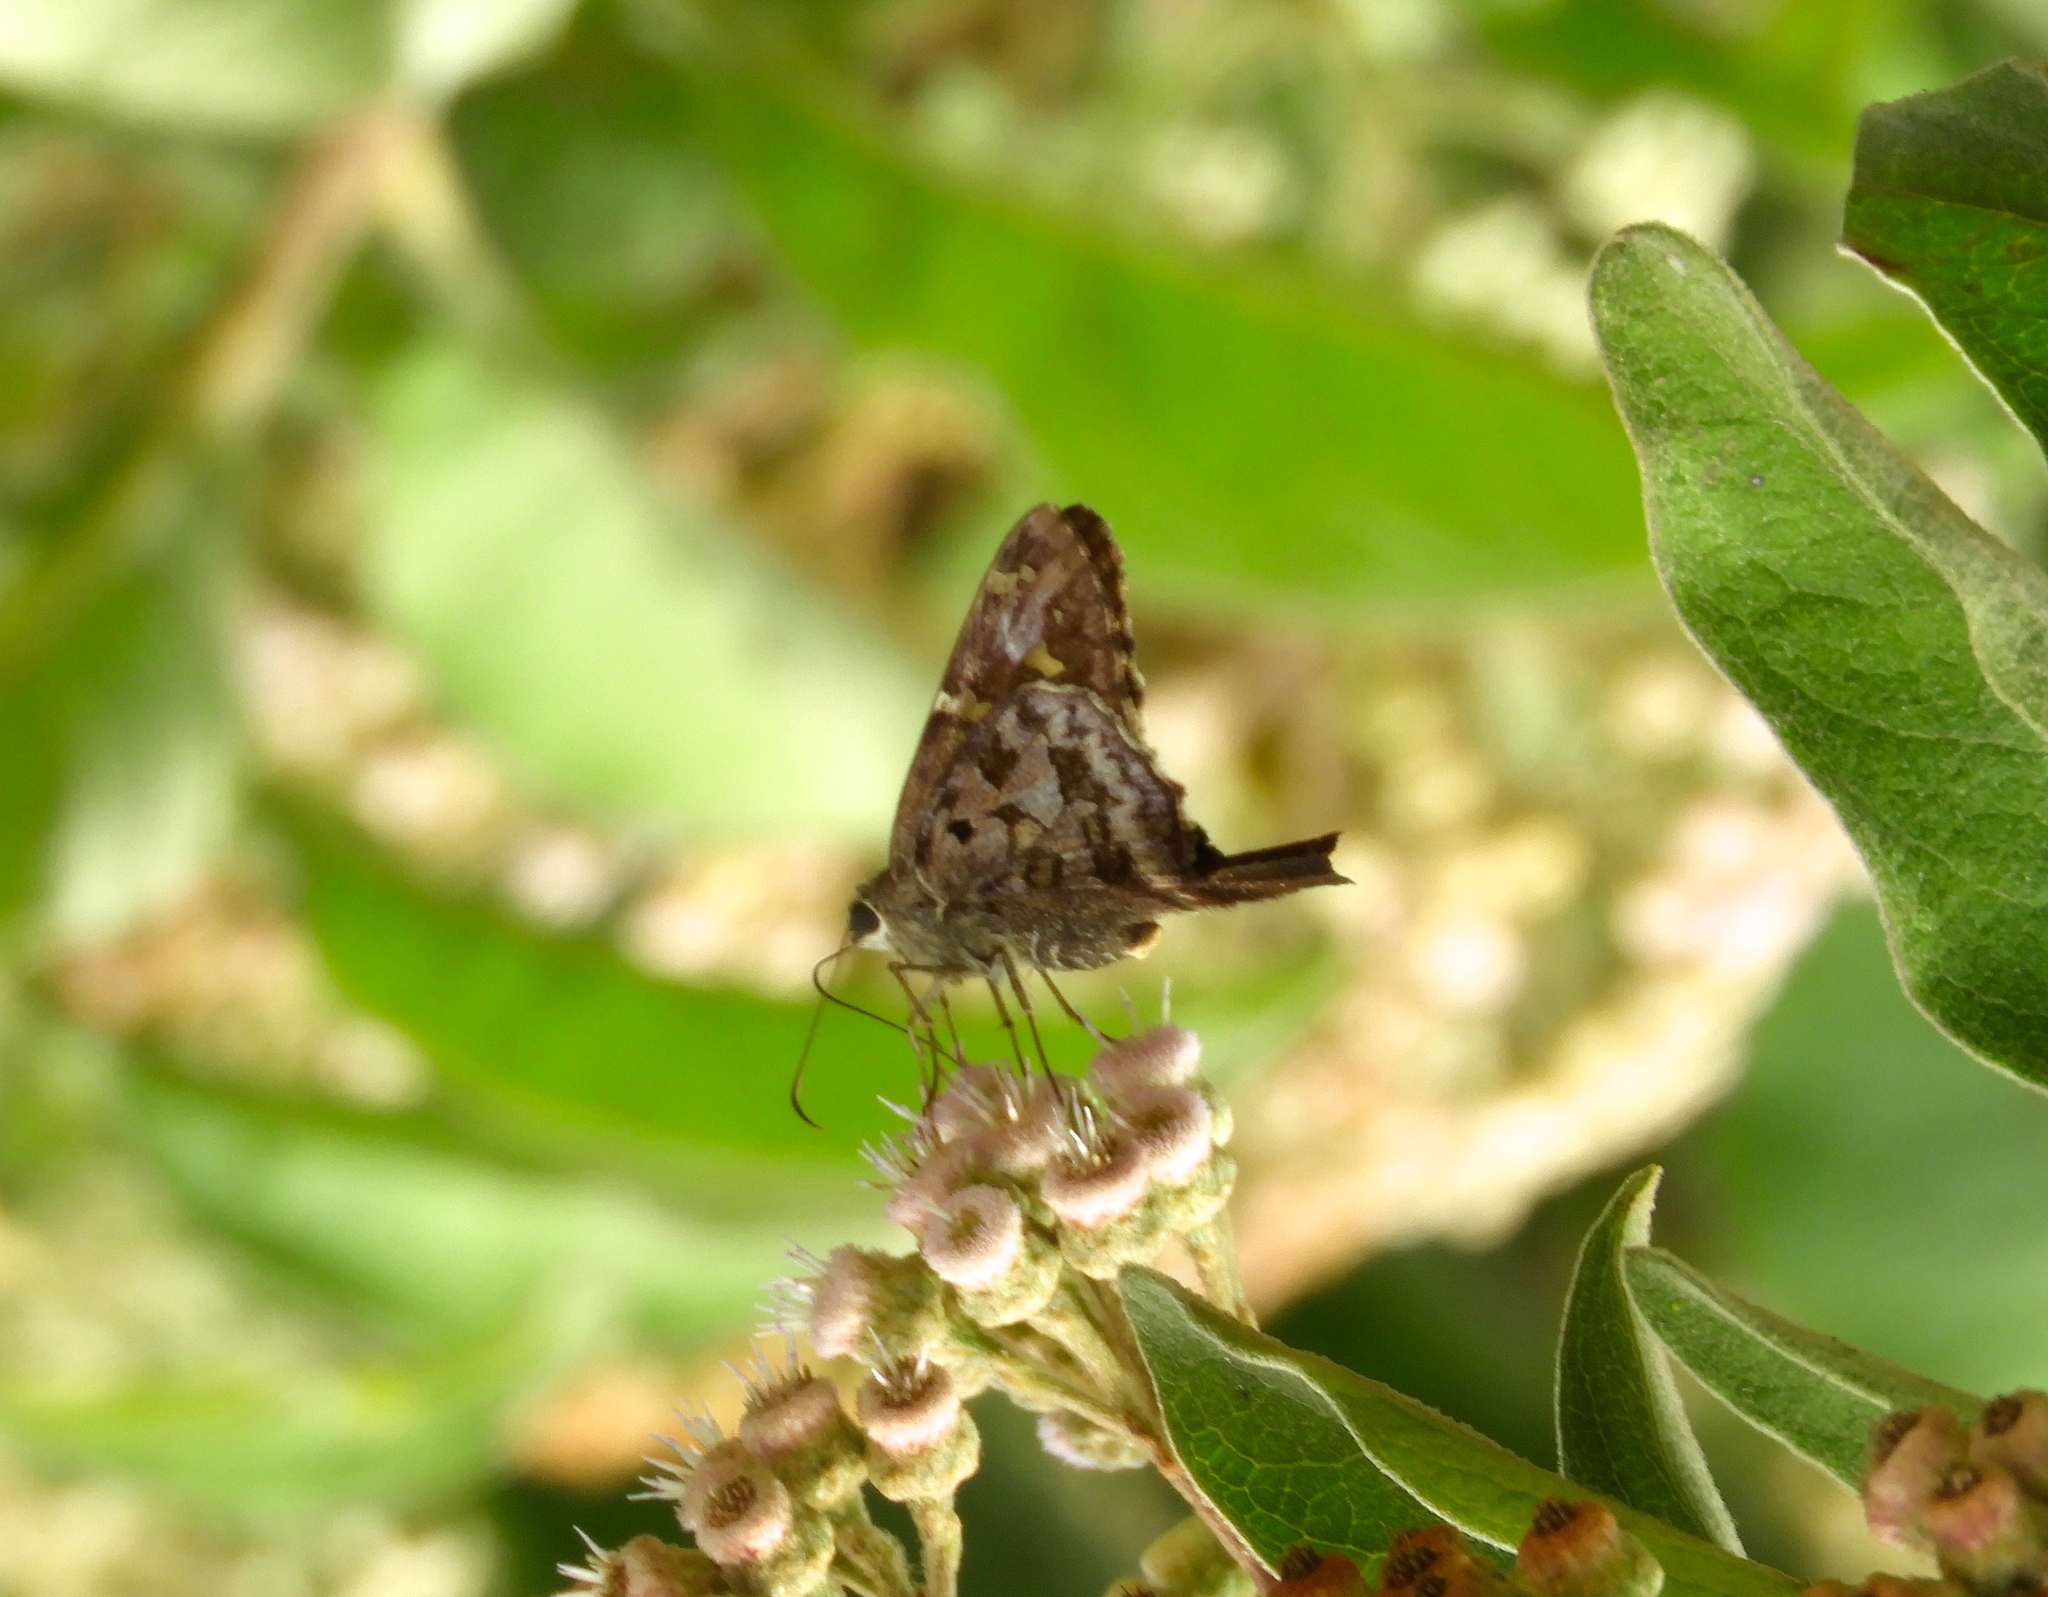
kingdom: Animalia
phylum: Arthropoda
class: Insecta
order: Lepidoptera
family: Hesperiidae
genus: Thorybes
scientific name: Thorybes
